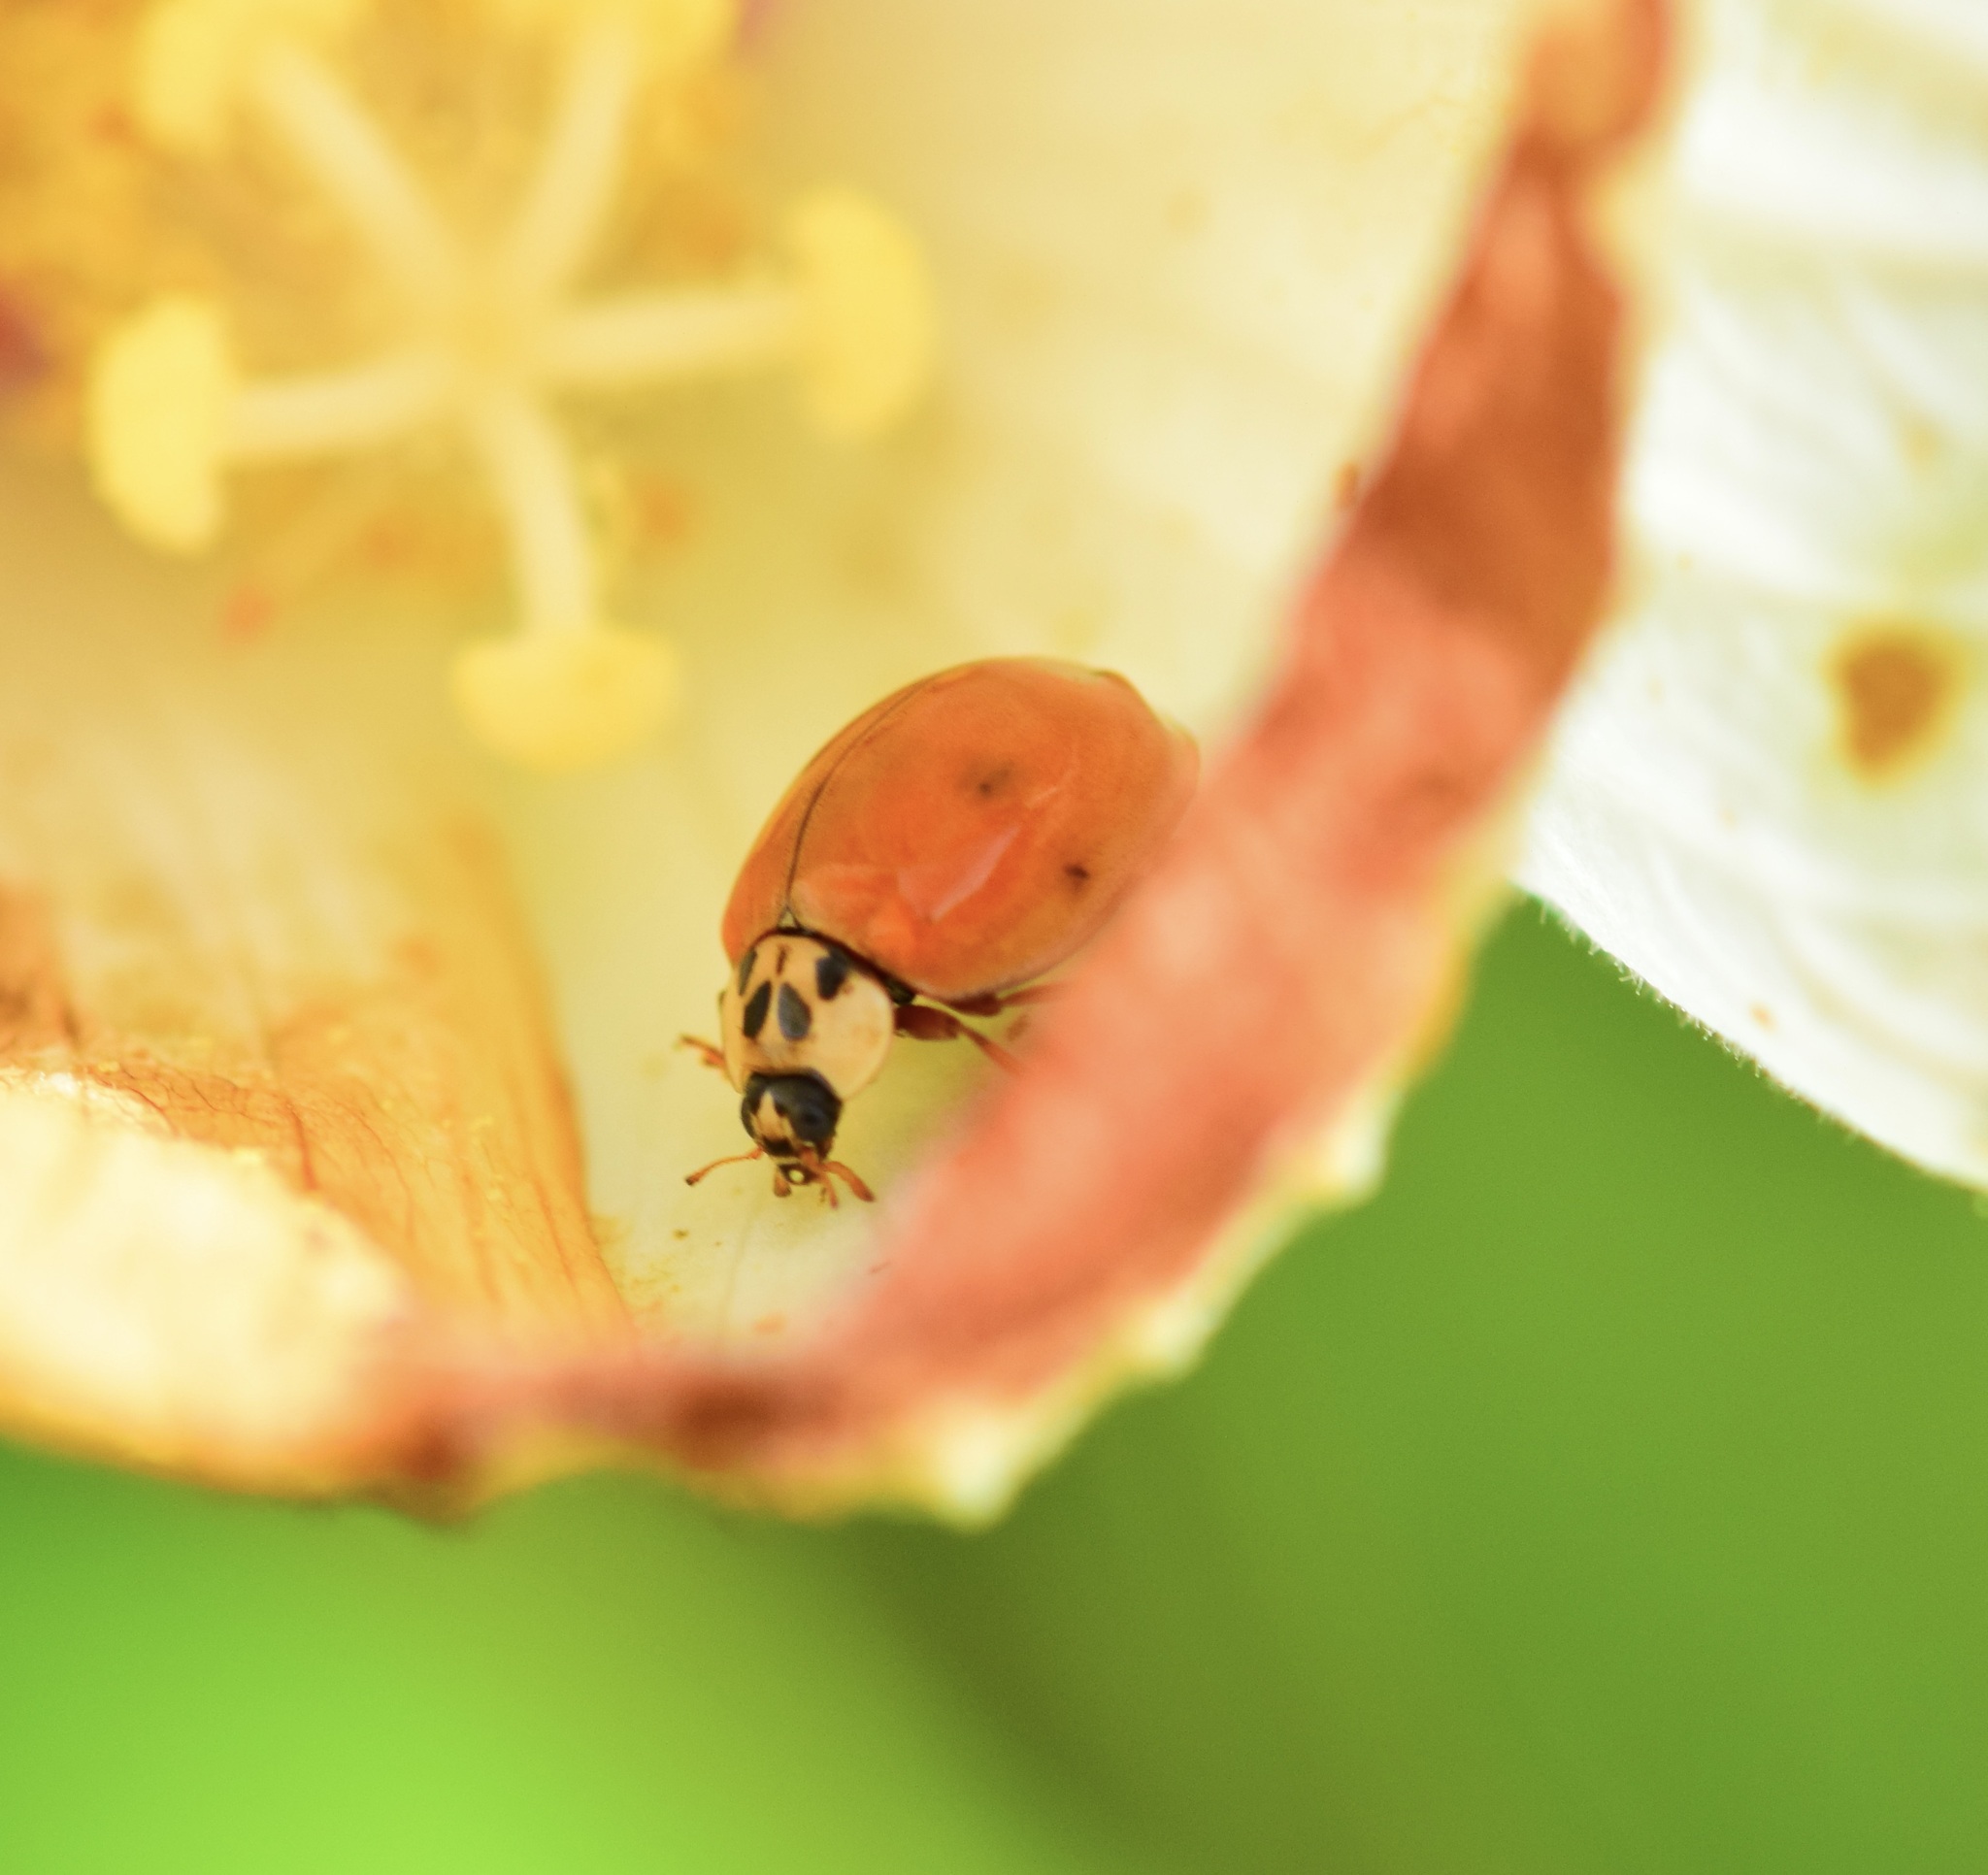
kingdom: Animalia
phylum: Arthropoda
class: Insecta
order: Coleoptera
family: Coccinellidae
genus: Harmonia
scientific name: Harmonia axyridis
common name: Harlequin ladybird
